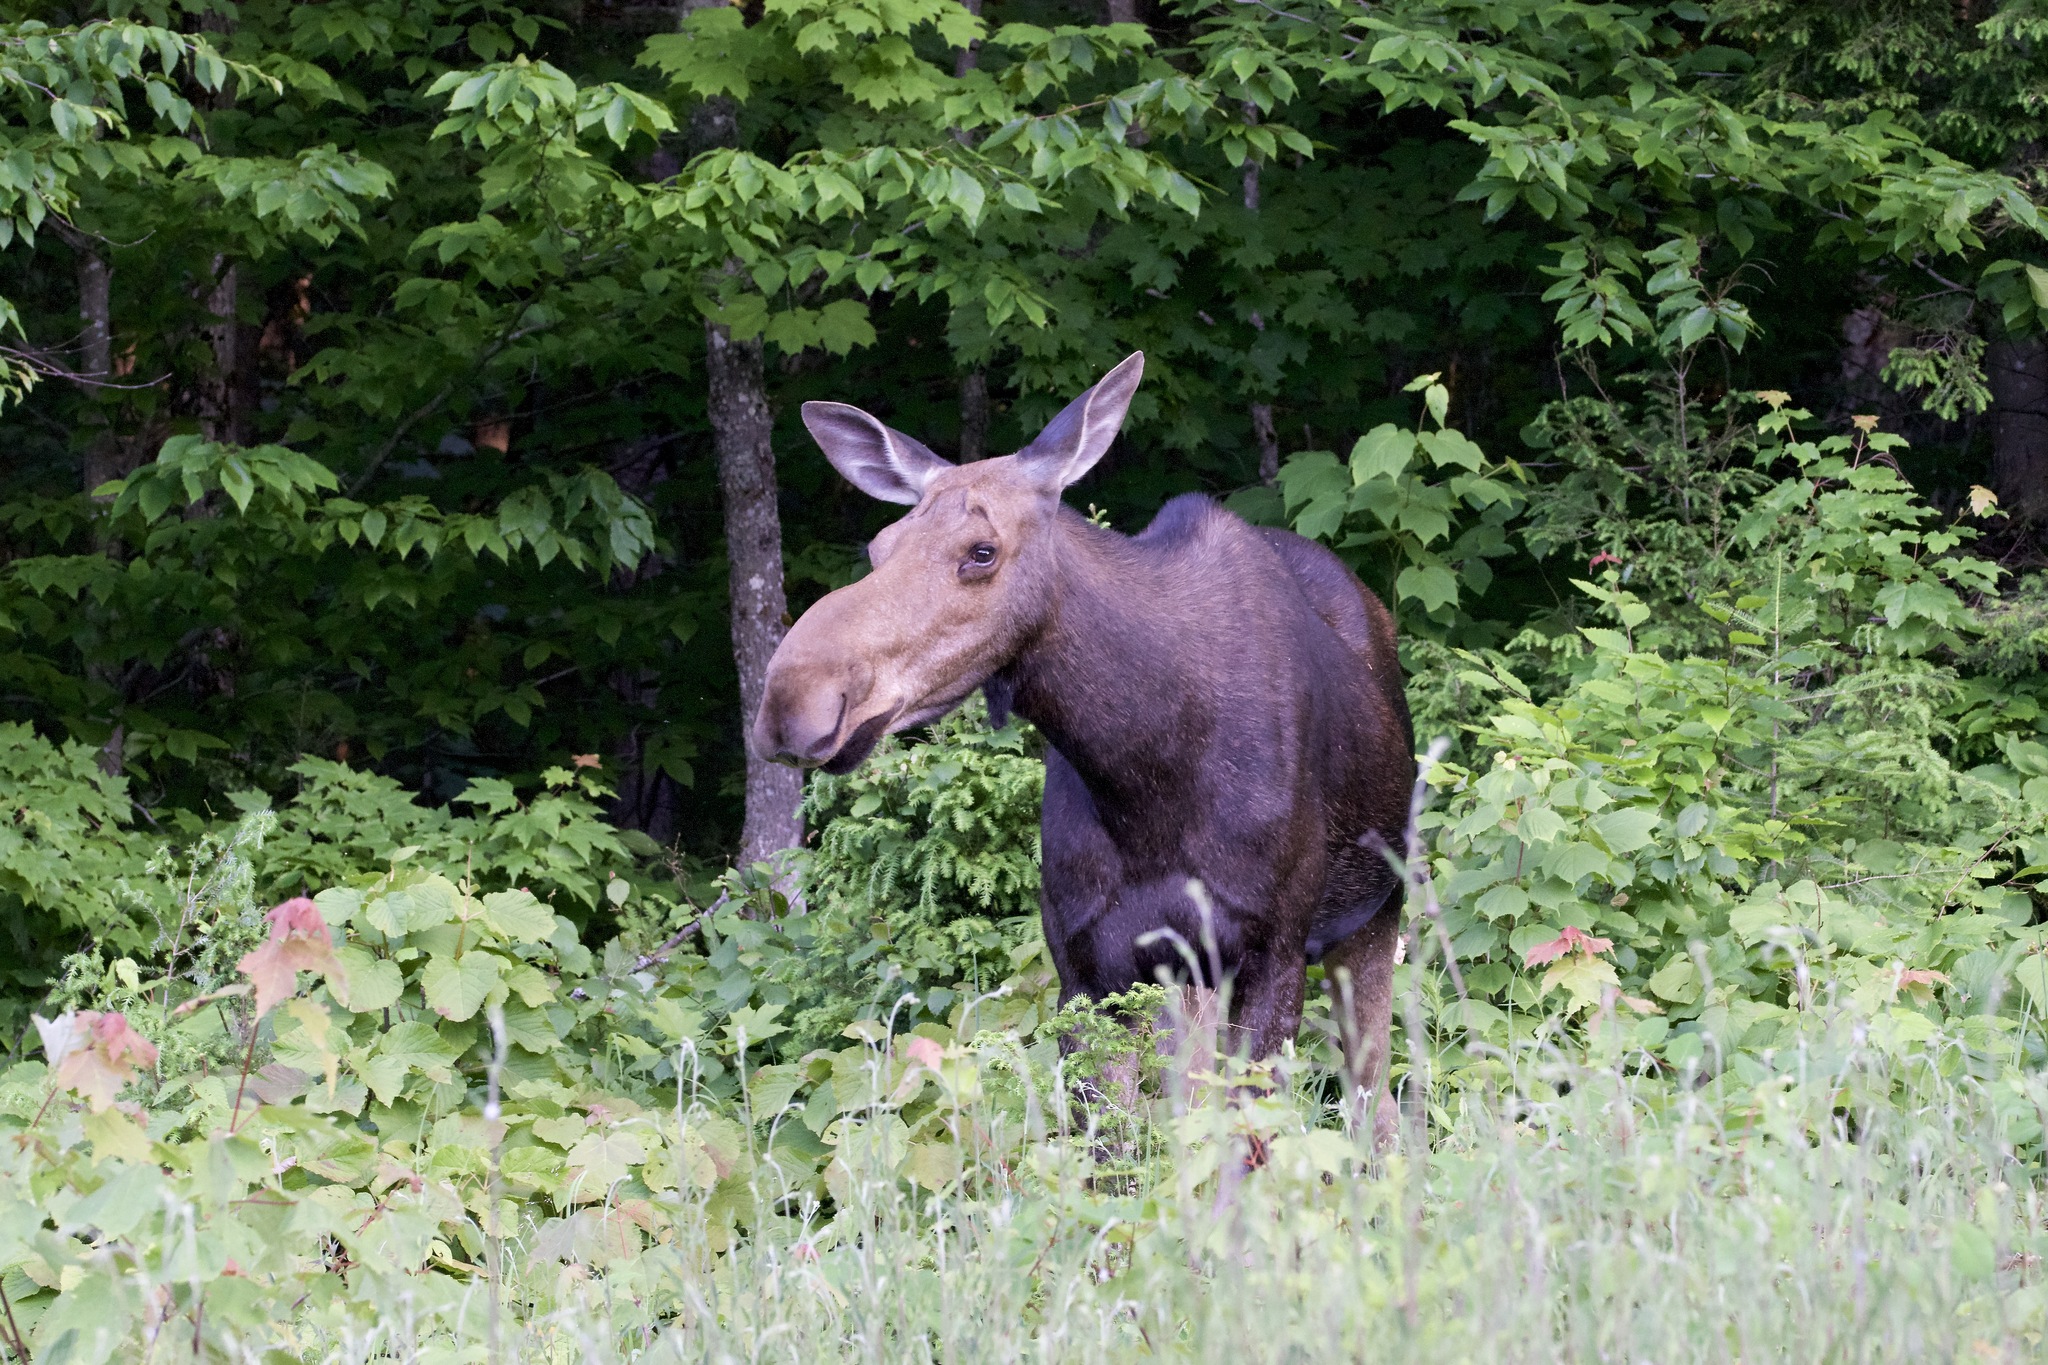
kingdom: Animalia
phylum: Chordata
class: Mammalia
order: Artiodactyla
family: Cervidae
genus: Alces
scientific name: Alces alces
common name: Moose
